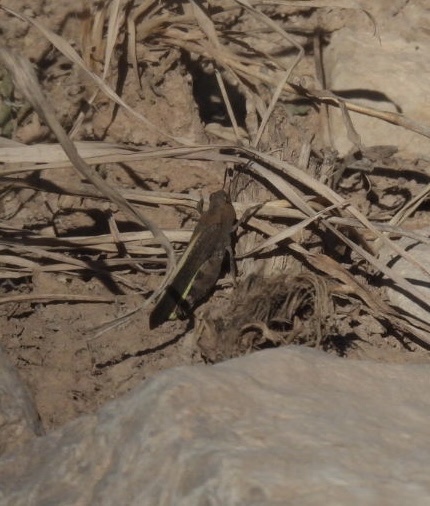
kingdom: Animalia
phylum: Arthropoda
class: Insecta
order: Orthoptera
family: Acrididae
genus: Arphia
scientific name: Arphia conspersa
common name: Speckle-winged rangeland grasshopper
